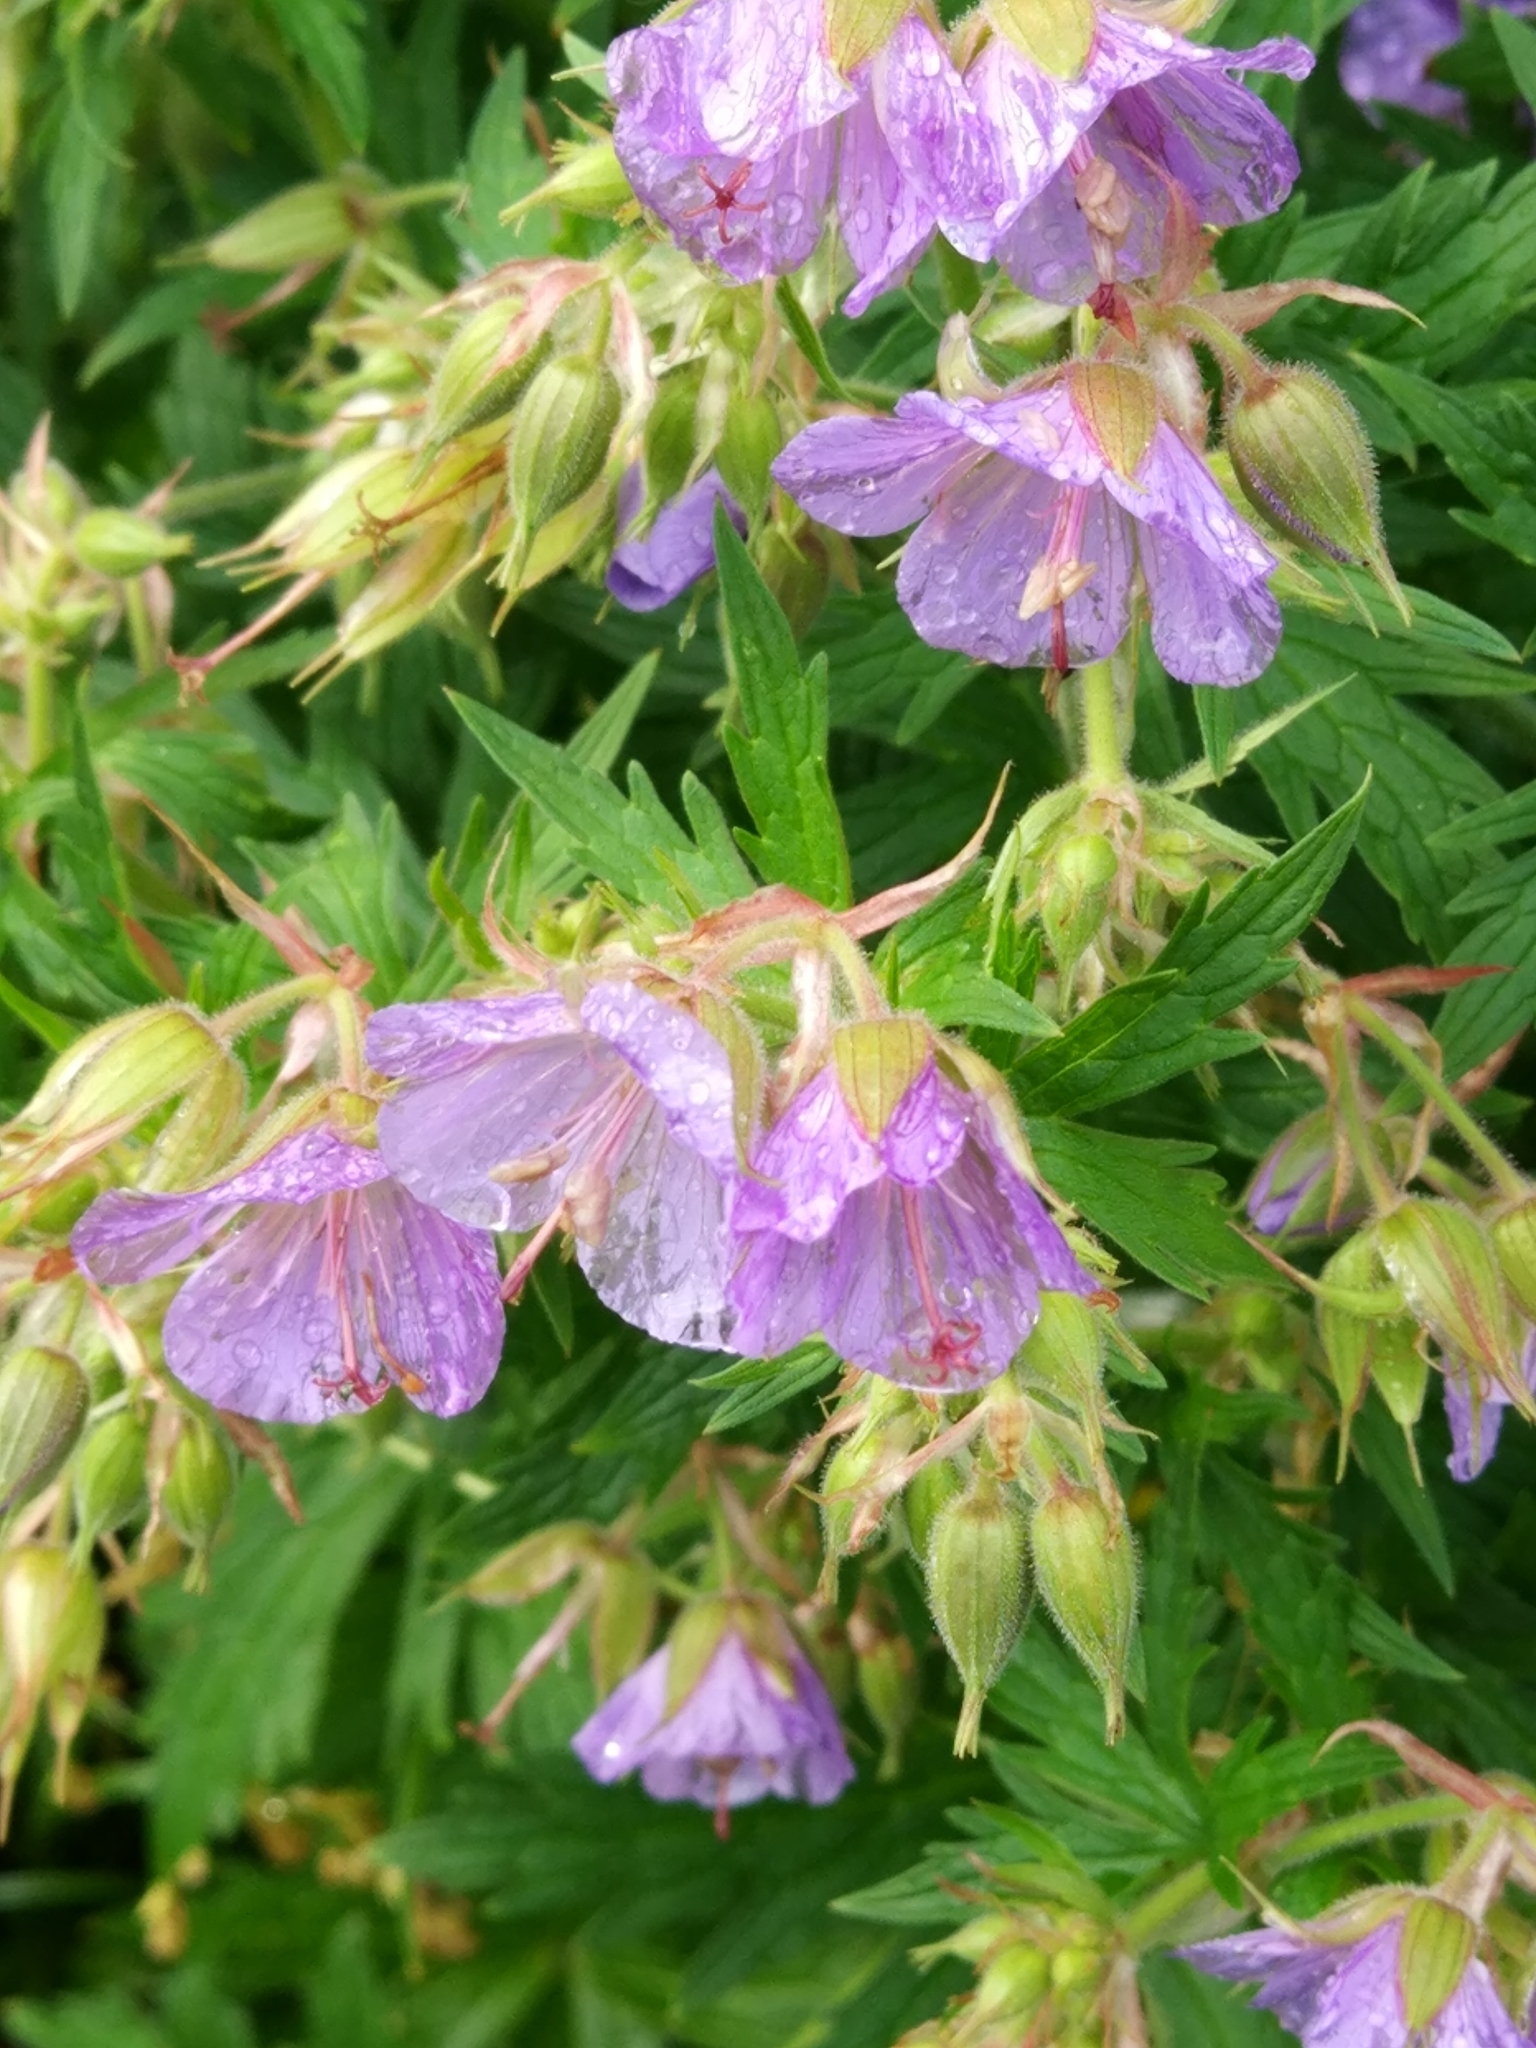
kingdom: Plantae
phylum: Tracheophyta
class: Magnoliopsida
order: Geraniales
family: Geraniaceae
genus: Geranium
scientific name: Geranium pratense
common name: Meadow crane's-bill
